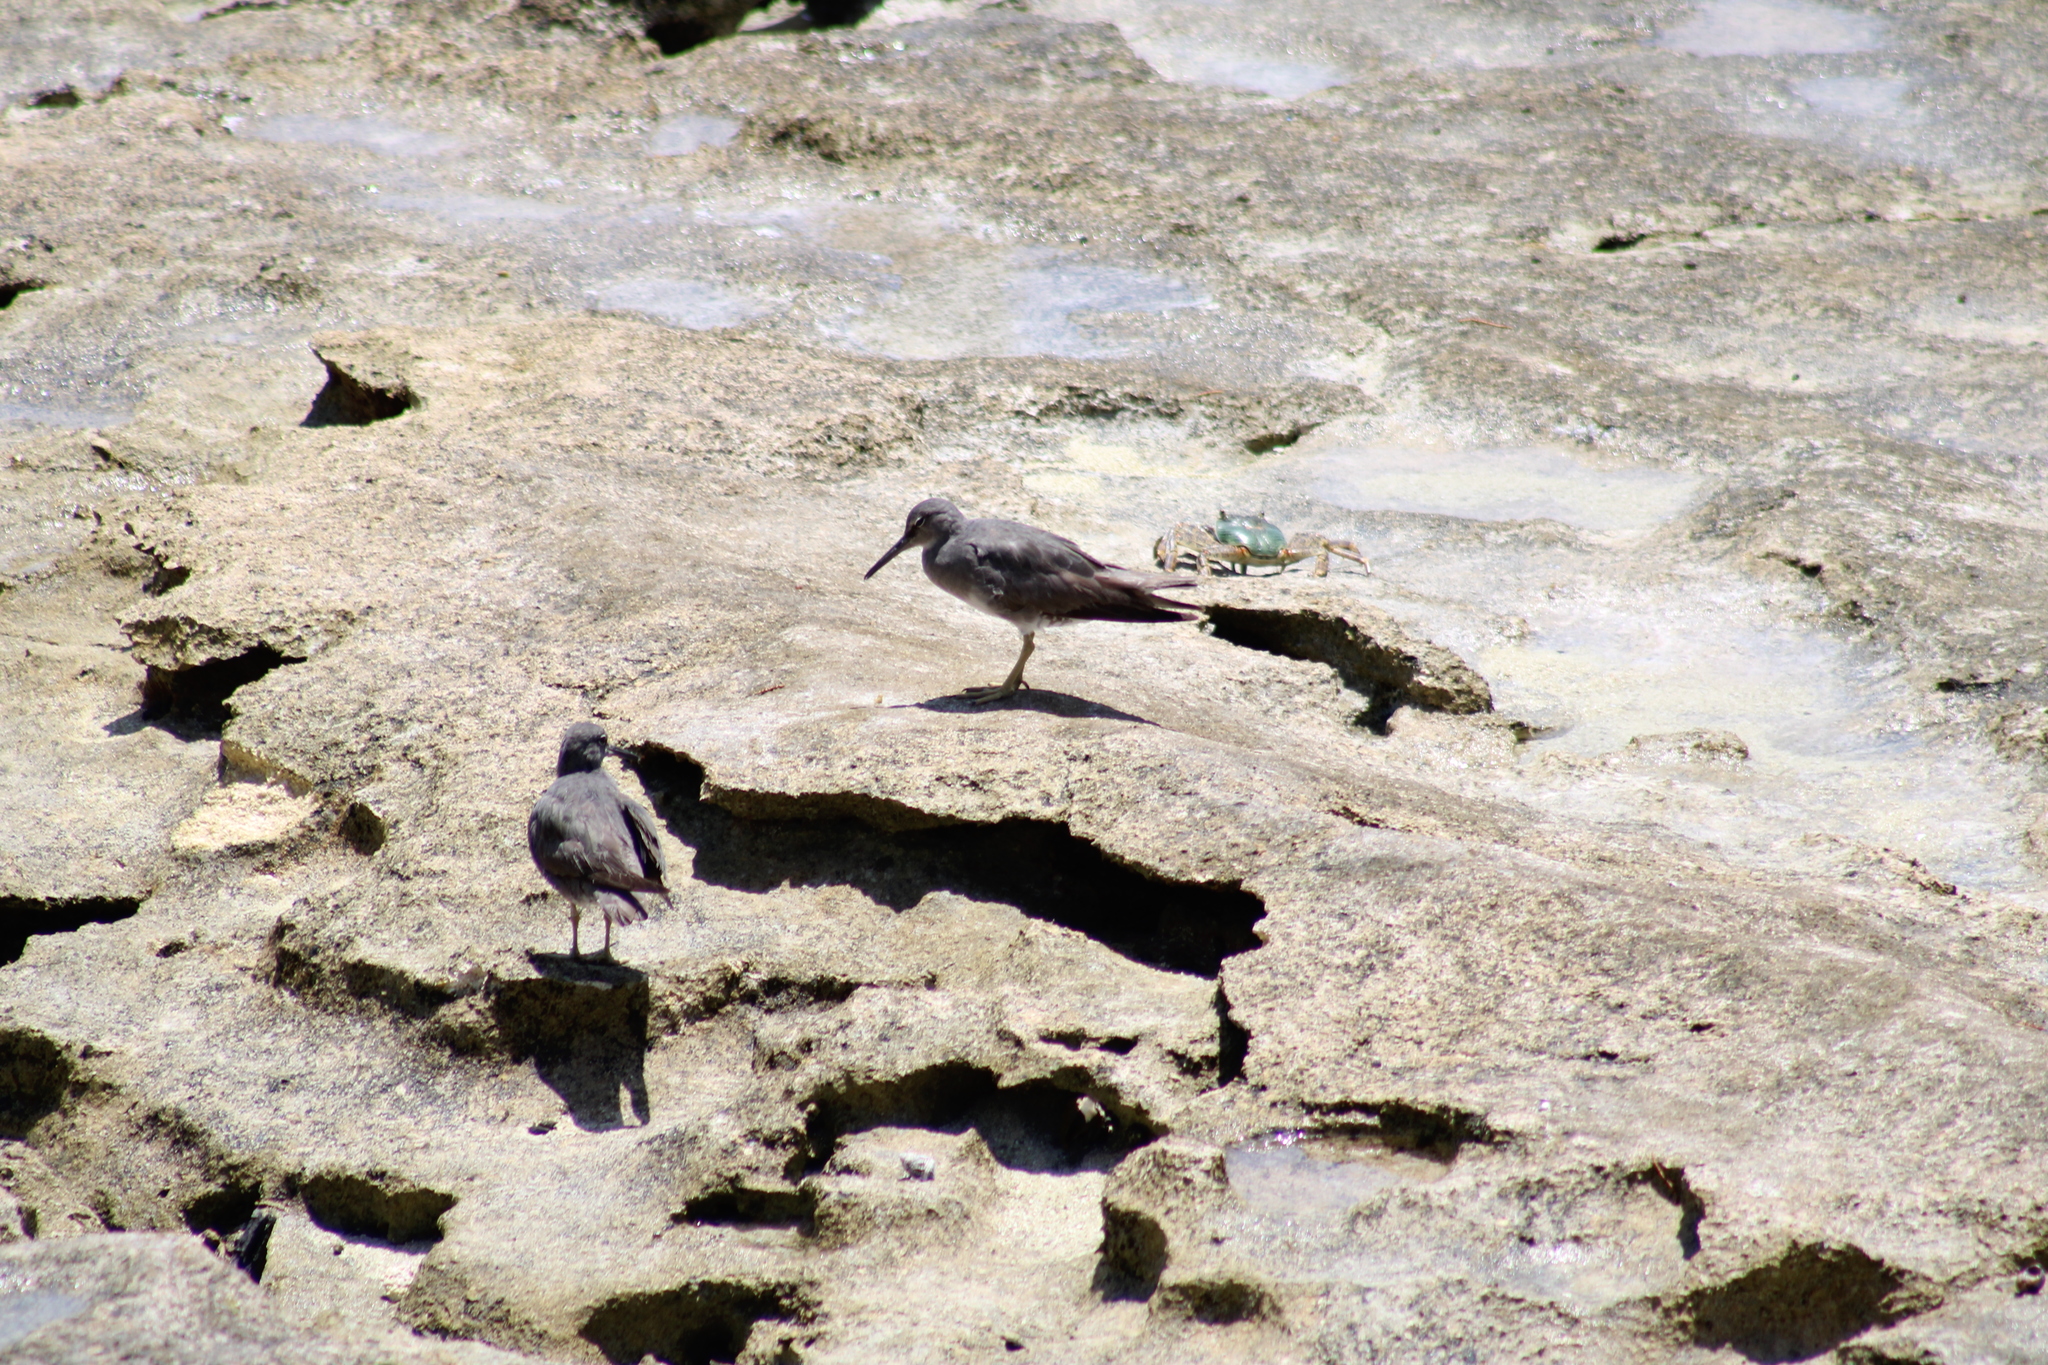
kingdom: Animalia
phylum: Chordata
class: Aves
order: Charadriiformes
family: Scolopacidae
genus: Tringa
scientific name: Tringa incana
